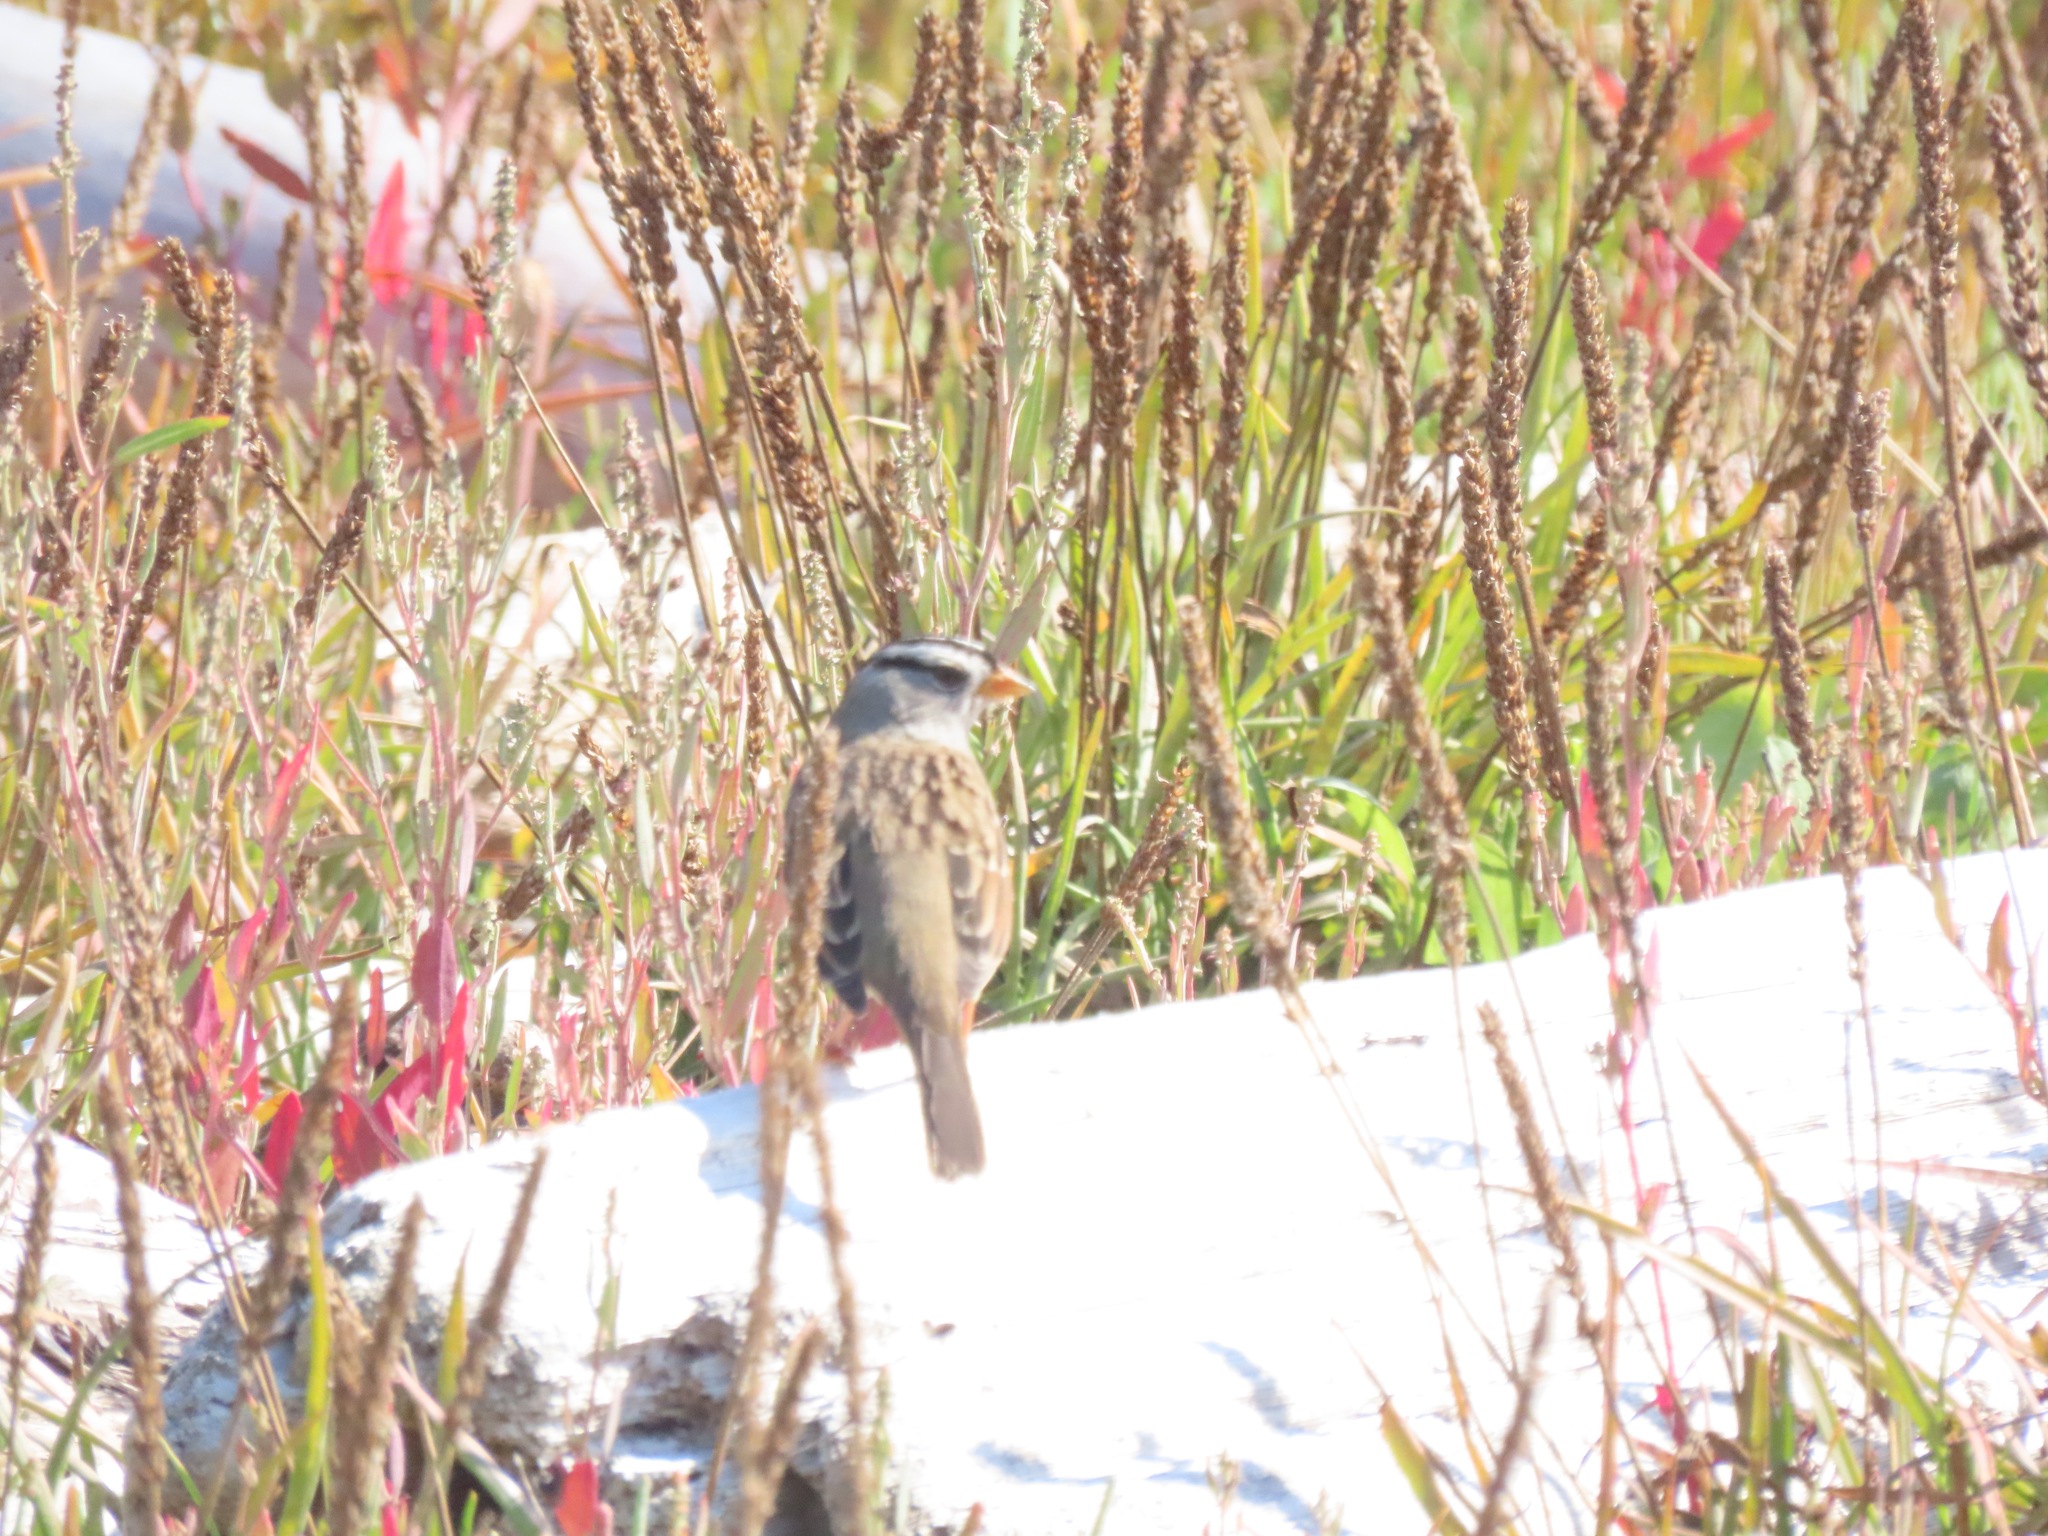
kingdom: Animalia
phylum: Chordata
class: Aves
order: Passeriformes
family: Passerellidae
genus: Zonotrichia
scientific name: Zonotrichia leucophrys
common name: White-crowned sparrow
